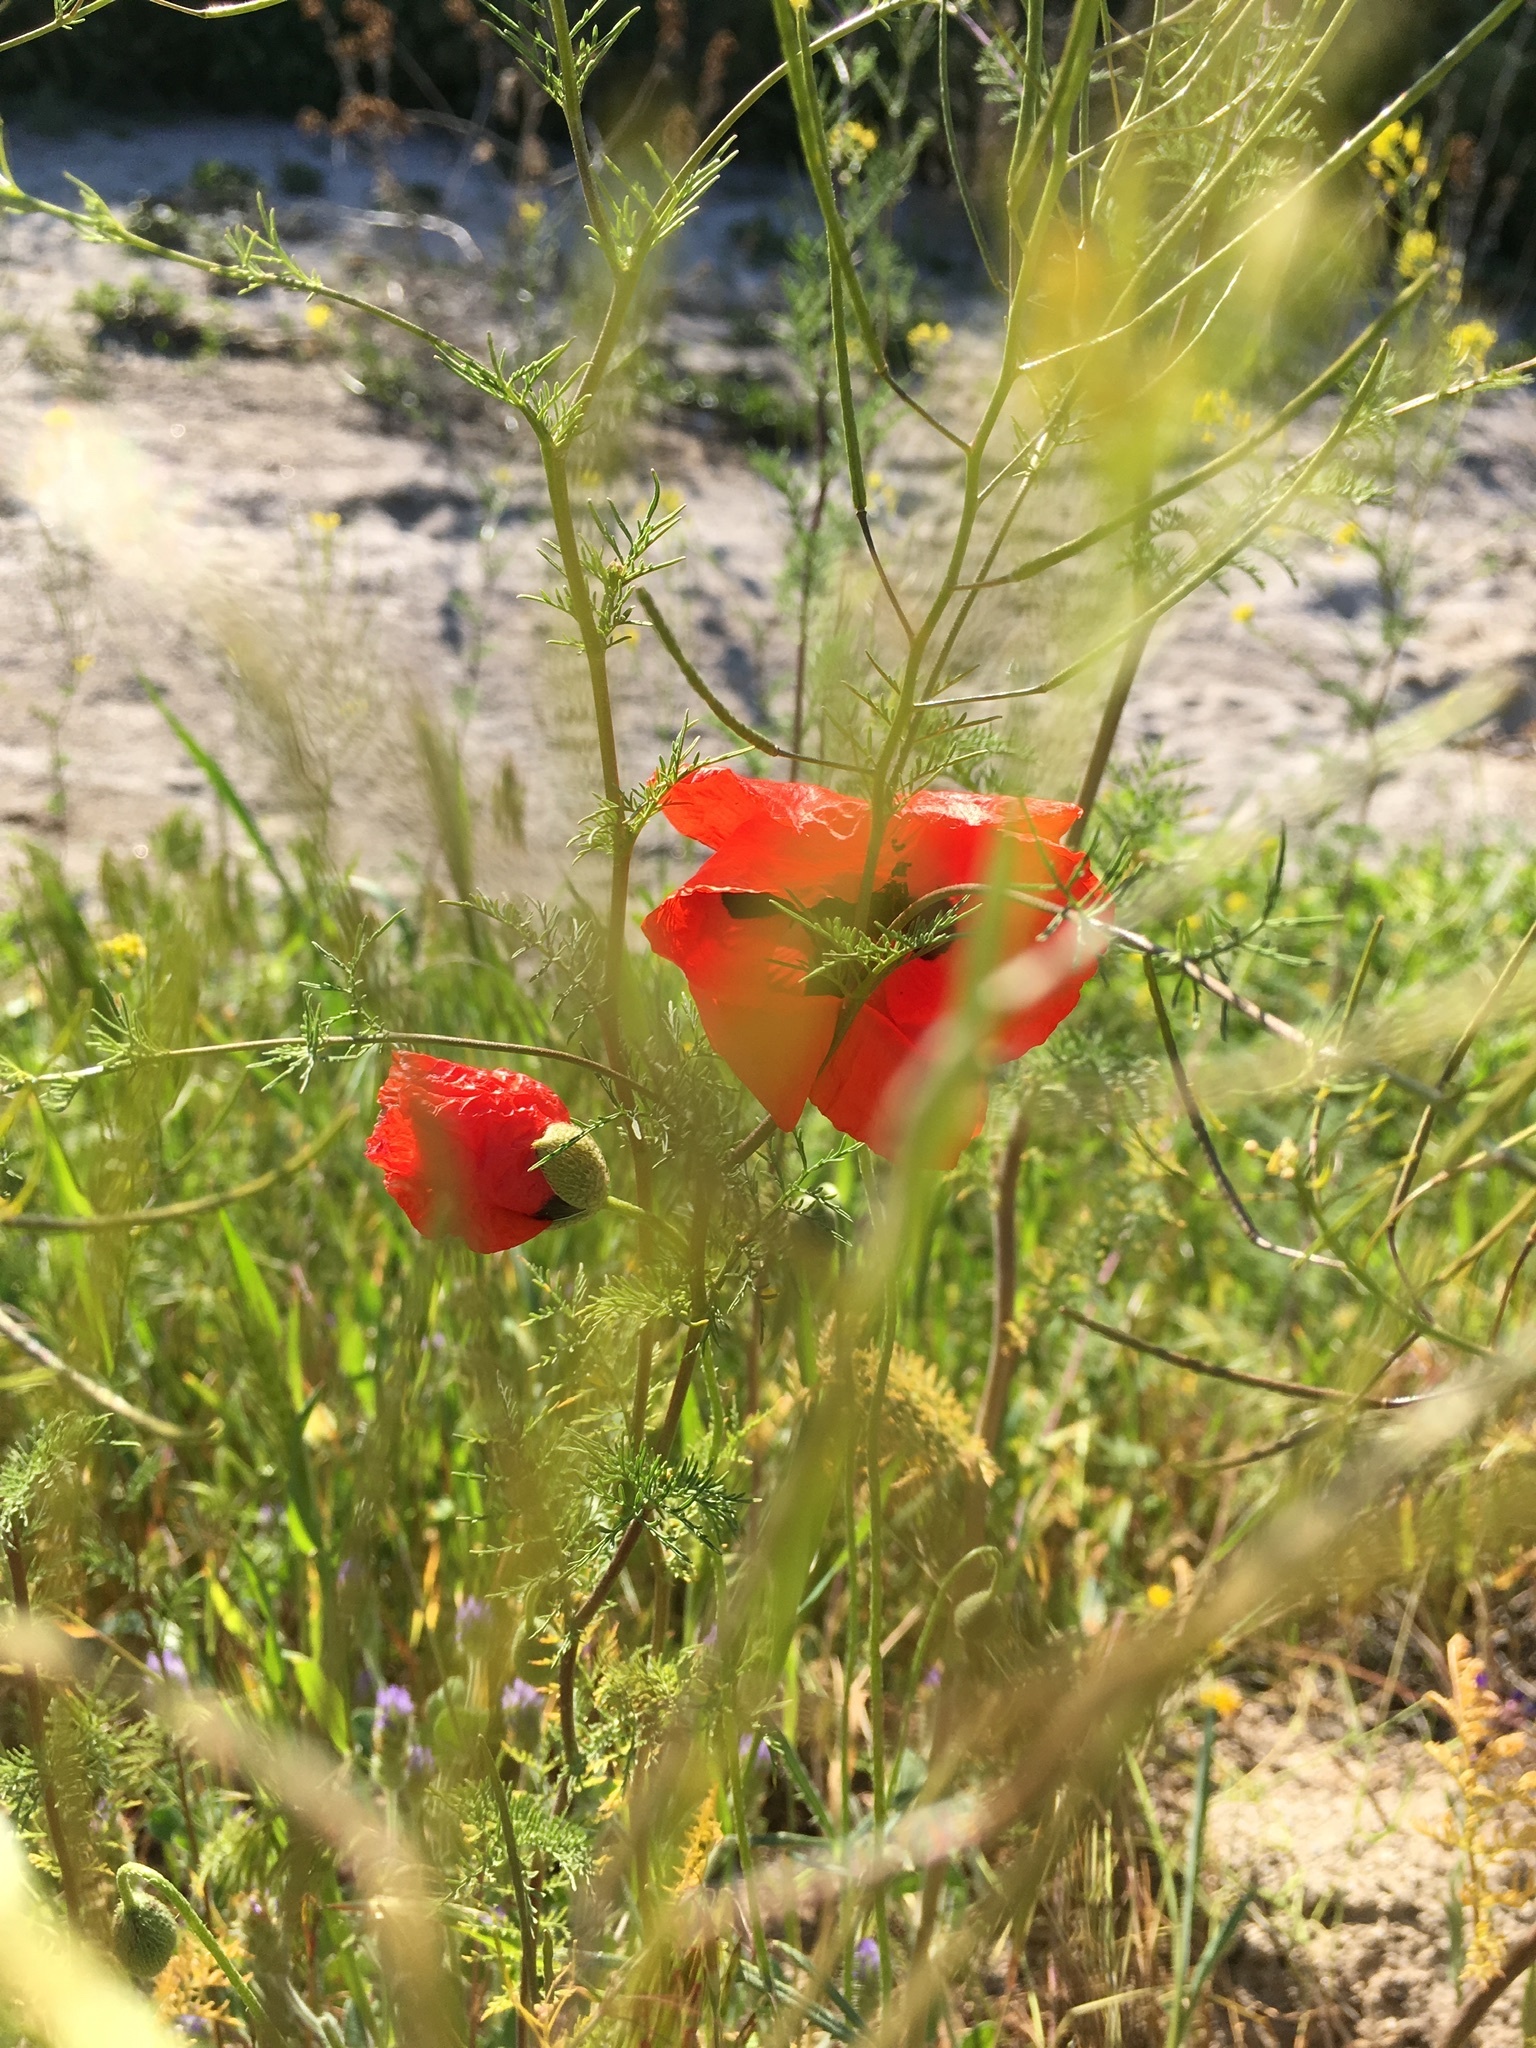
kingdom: Plantae
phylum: Tracheophyta
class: Magnoliopsida
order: Ranunculales
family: Papaveraceae
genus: Papaver
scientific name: Papaver rhoeas
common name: Corn poppy
